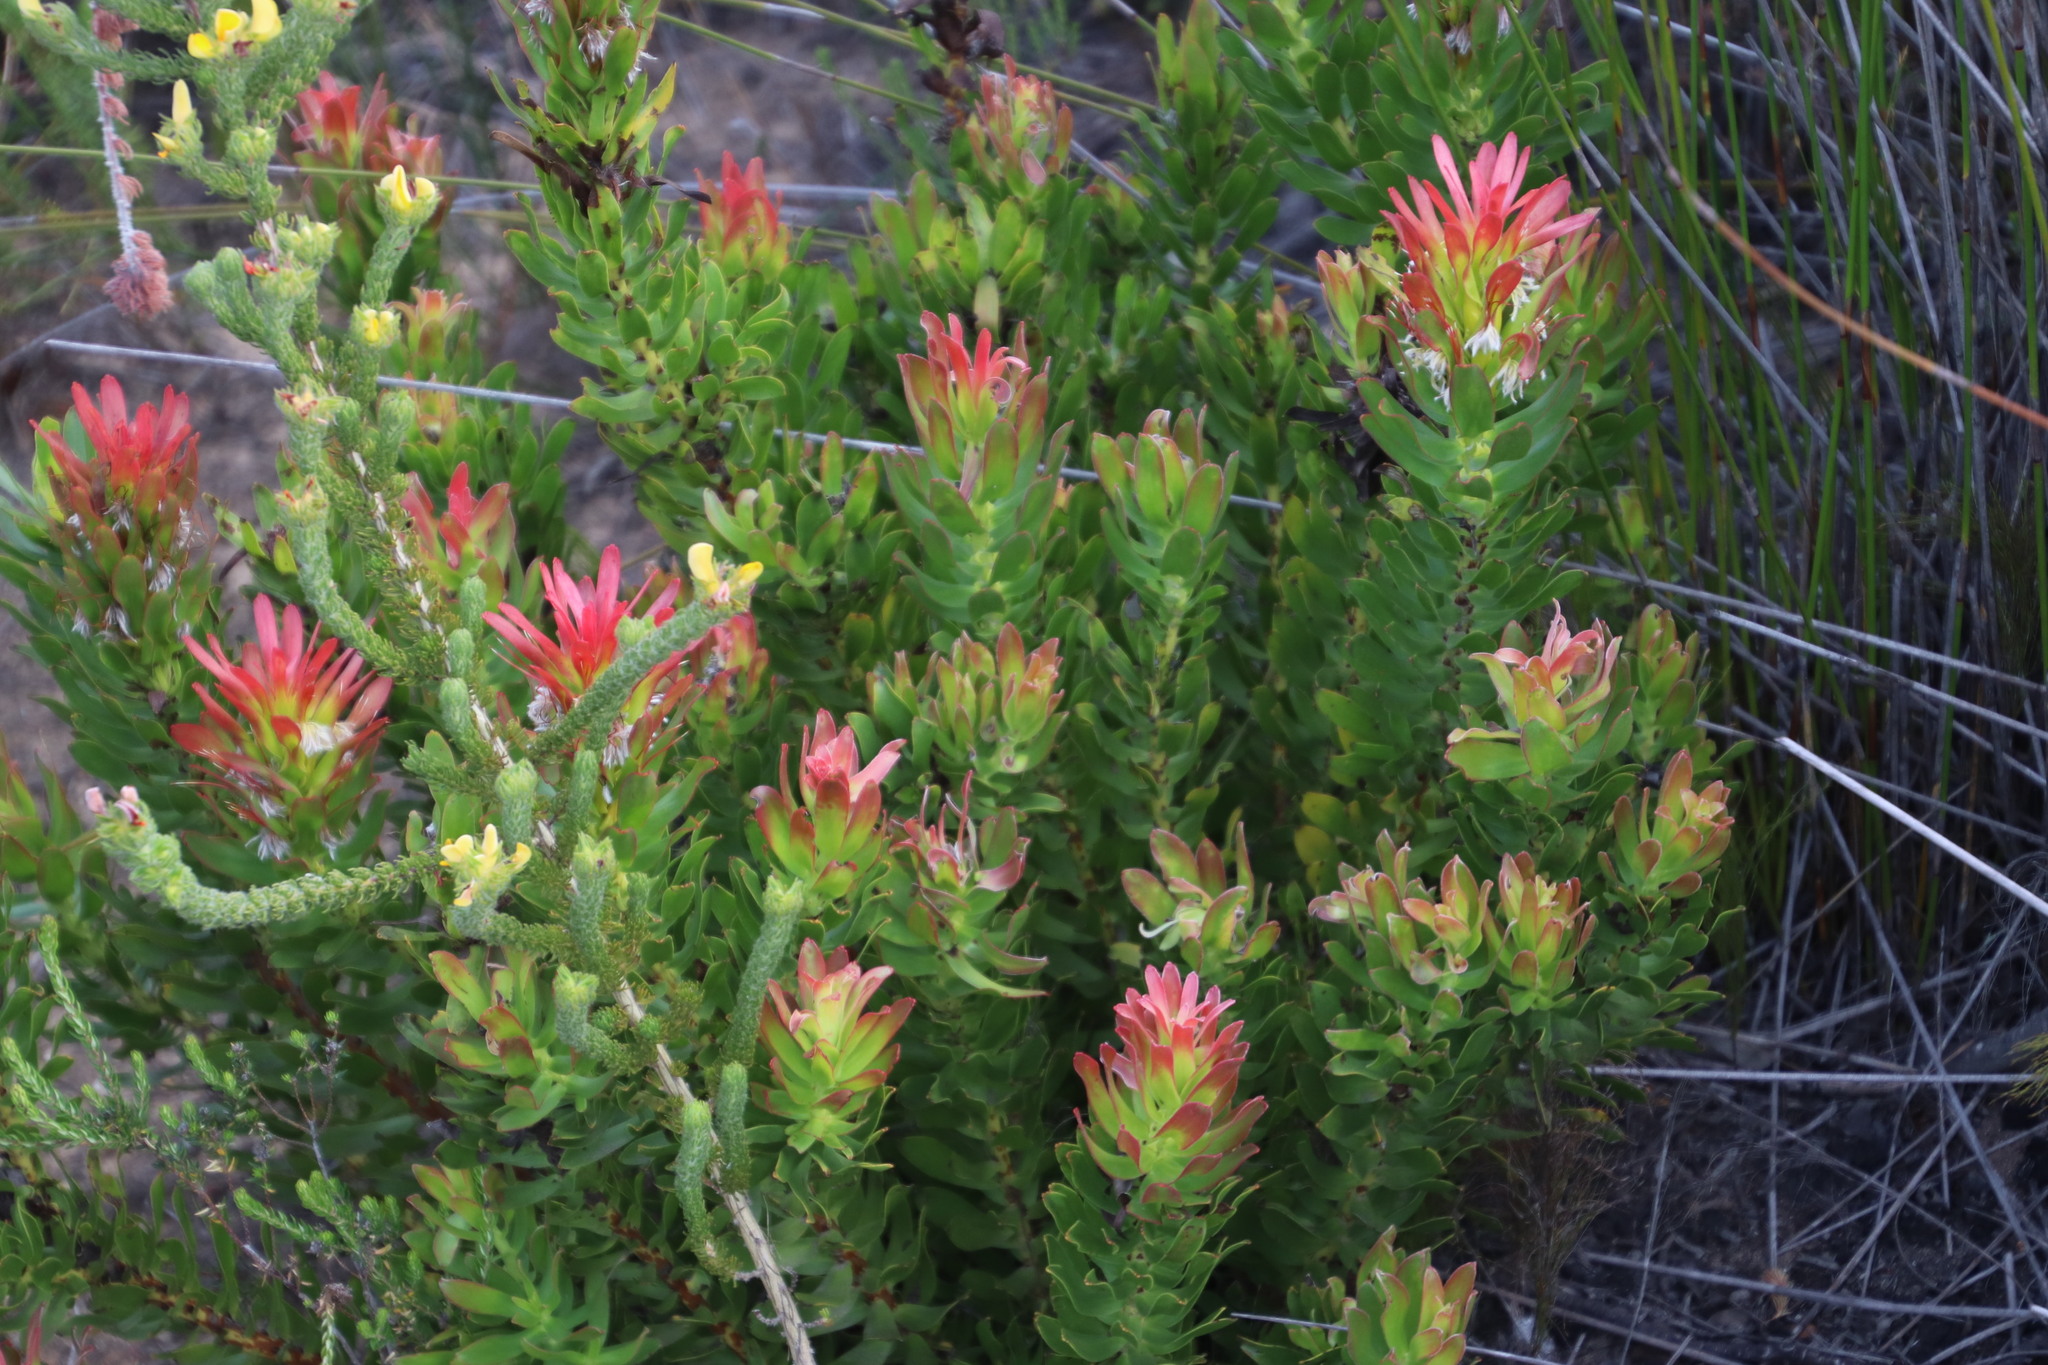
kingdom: Plantae
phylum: Tracheophyta
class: Magnoliopsida
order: Proteales
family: Proteaceae
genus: Mimetes
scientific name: Mimetes cucullatus
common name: Common pagoda
